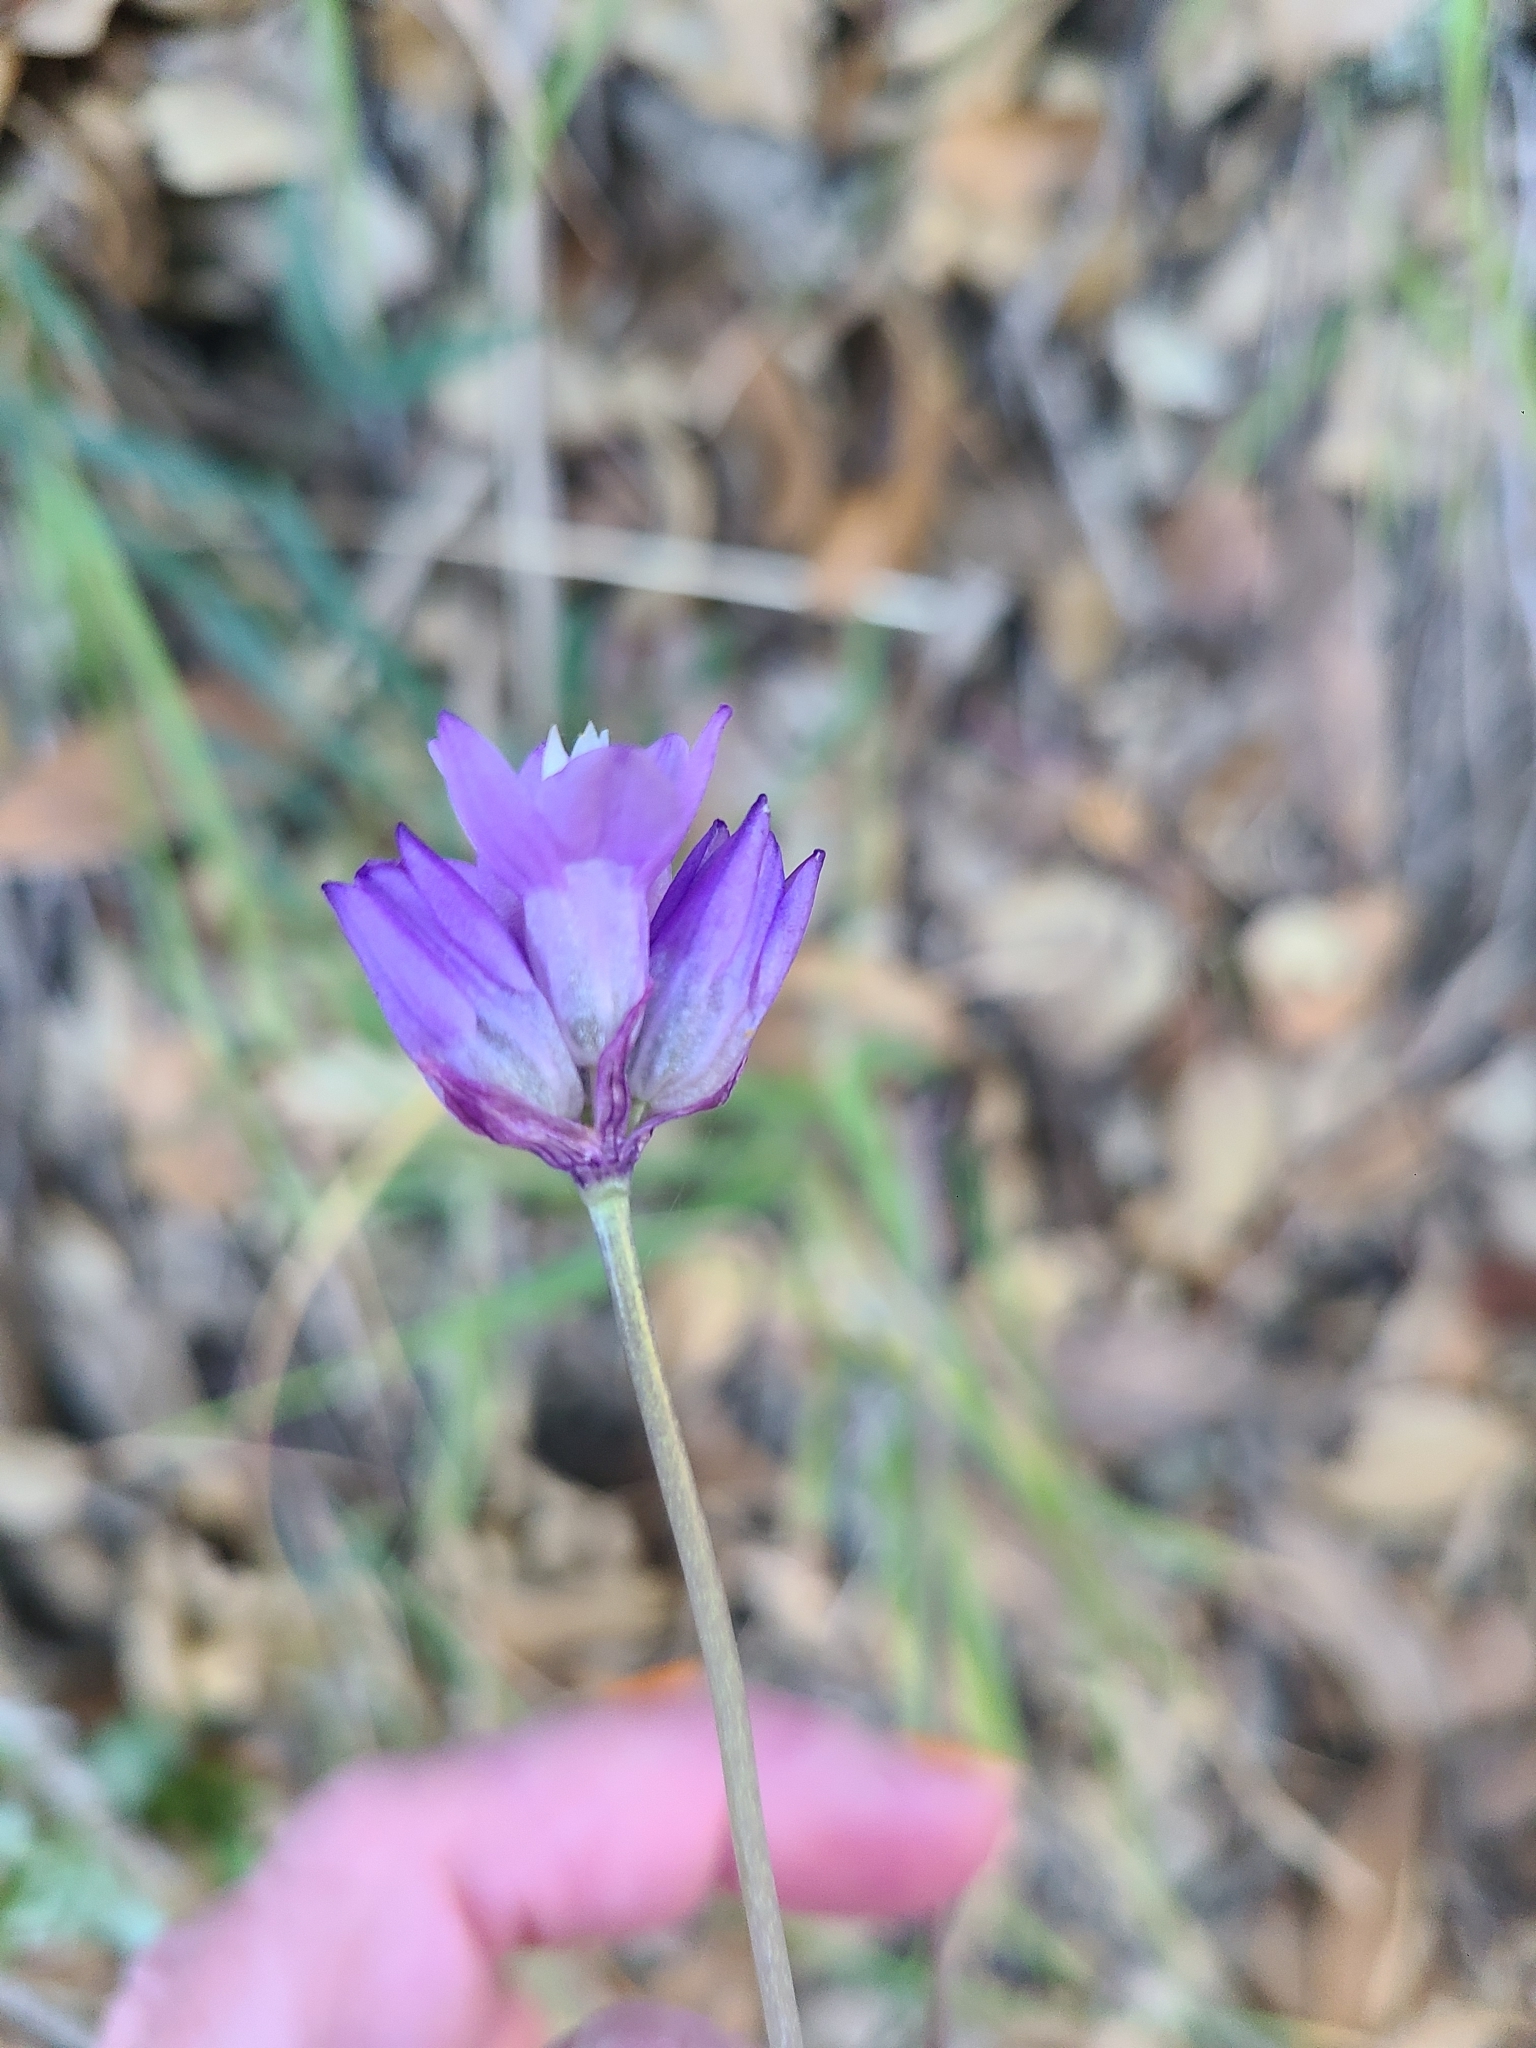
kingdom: Plantae
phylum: Tracheophyta
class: Liliopsida
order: Asparagales
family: Asparagaceae
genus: Dipterostemon
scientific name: Dipterostemon capitatus
